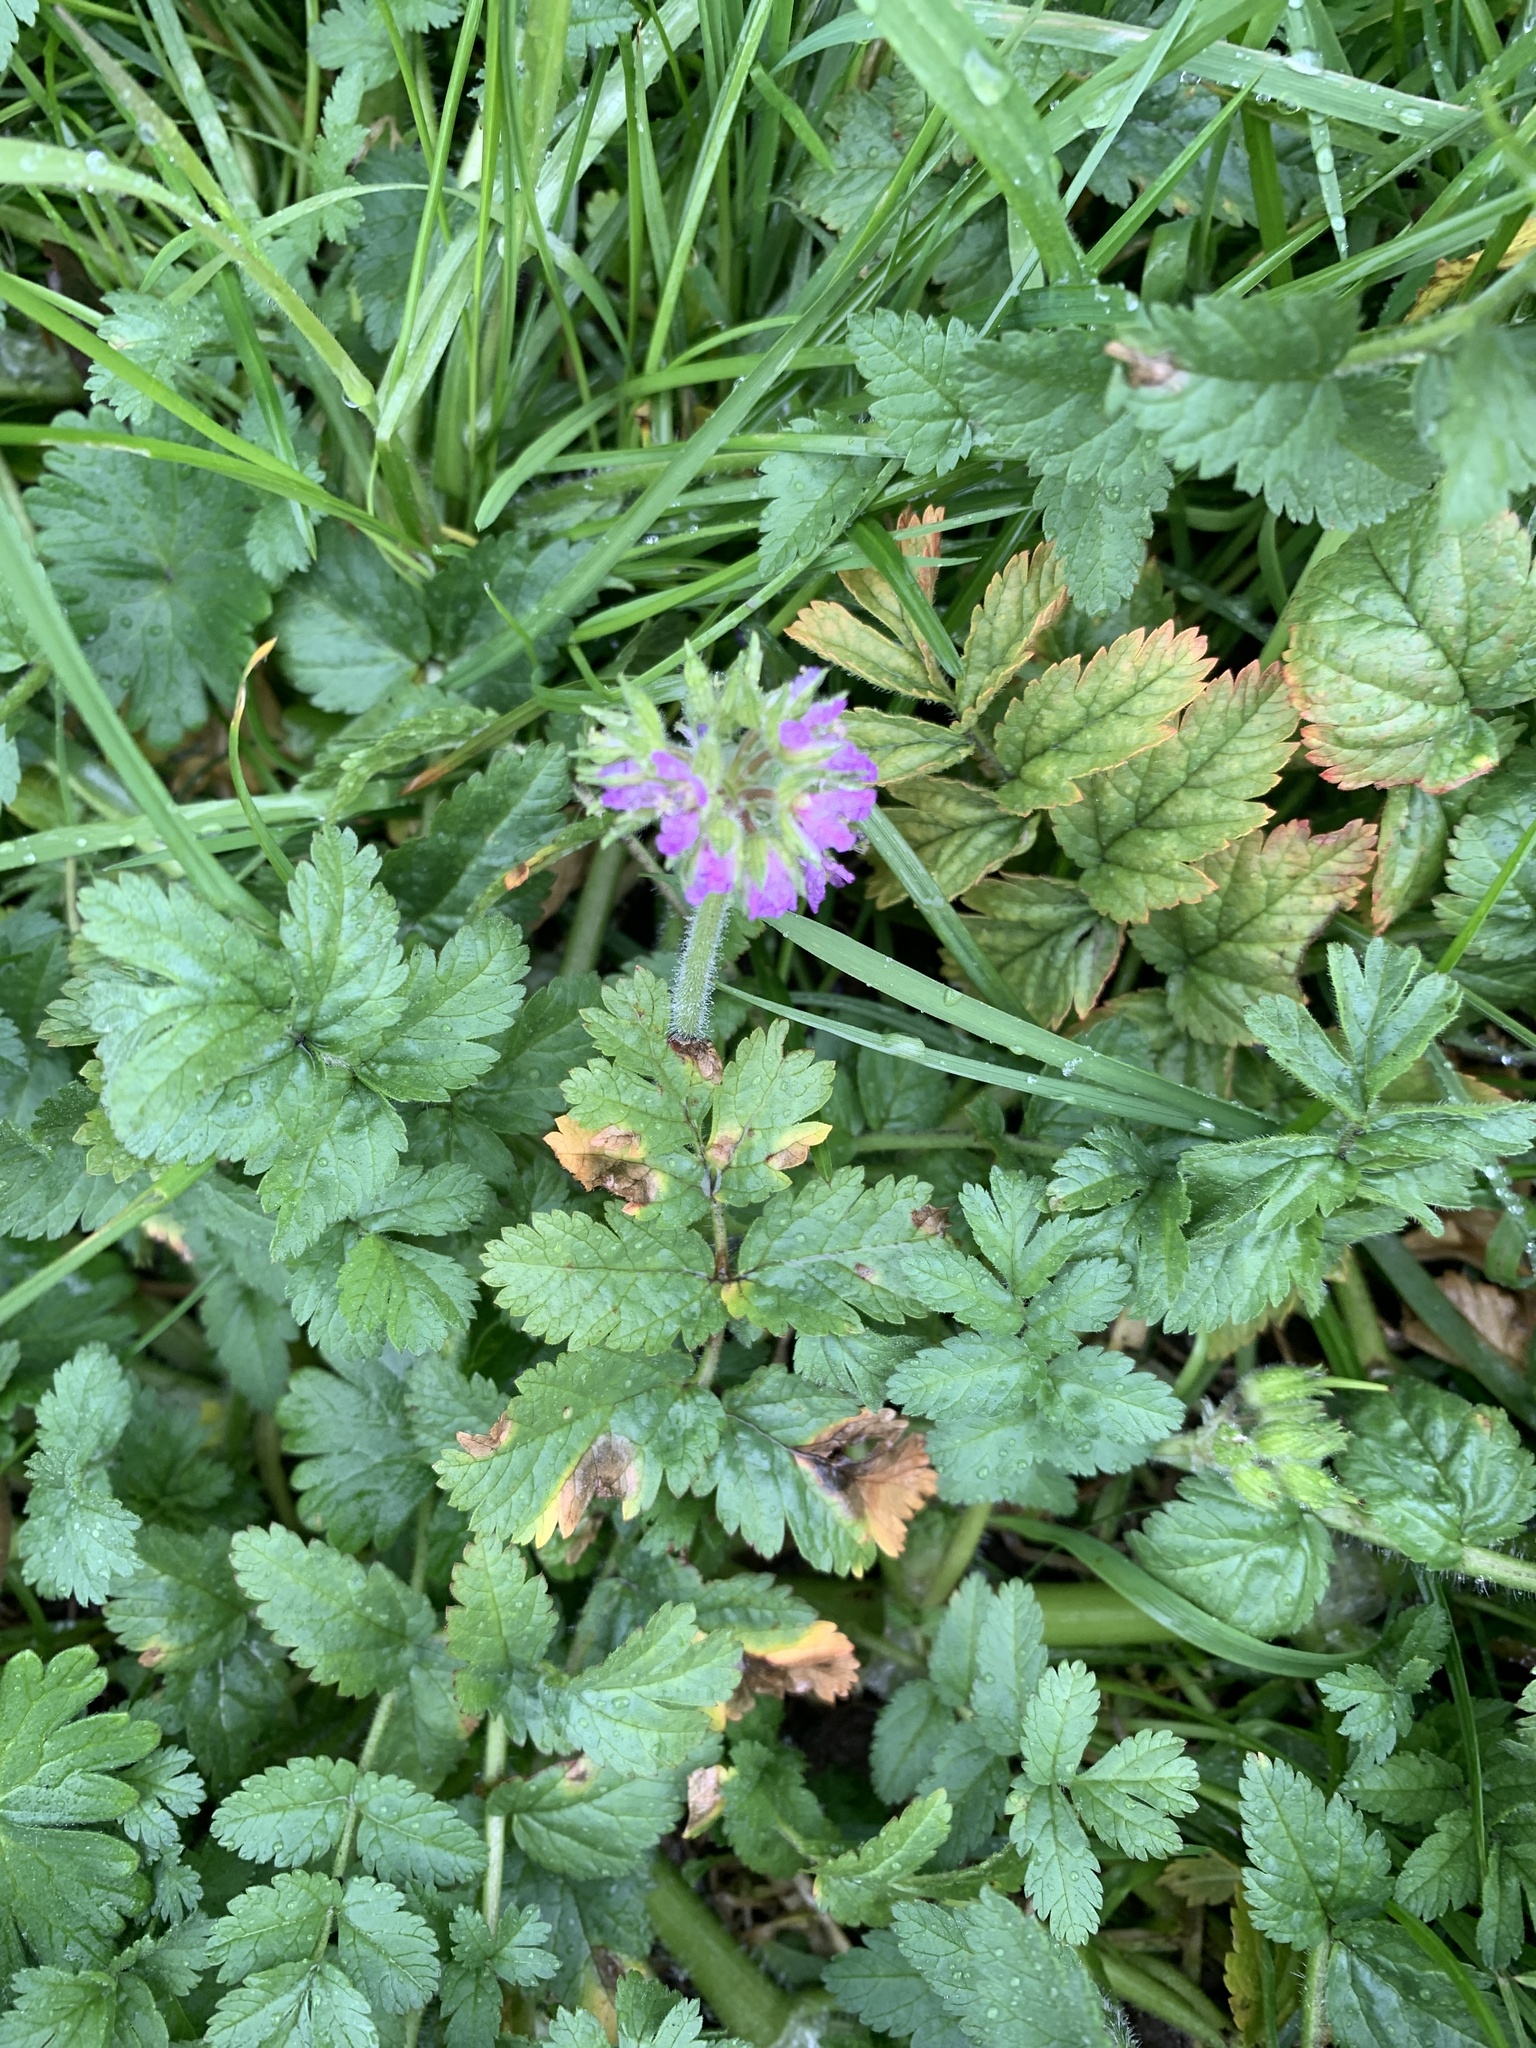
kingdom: Plantae
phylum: Tracheophyta
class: Magnoliopsida
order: Geraniales
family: Geraniaceae
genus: Erodium
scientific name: Erodium moschatum
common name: Musk stork's-bill
